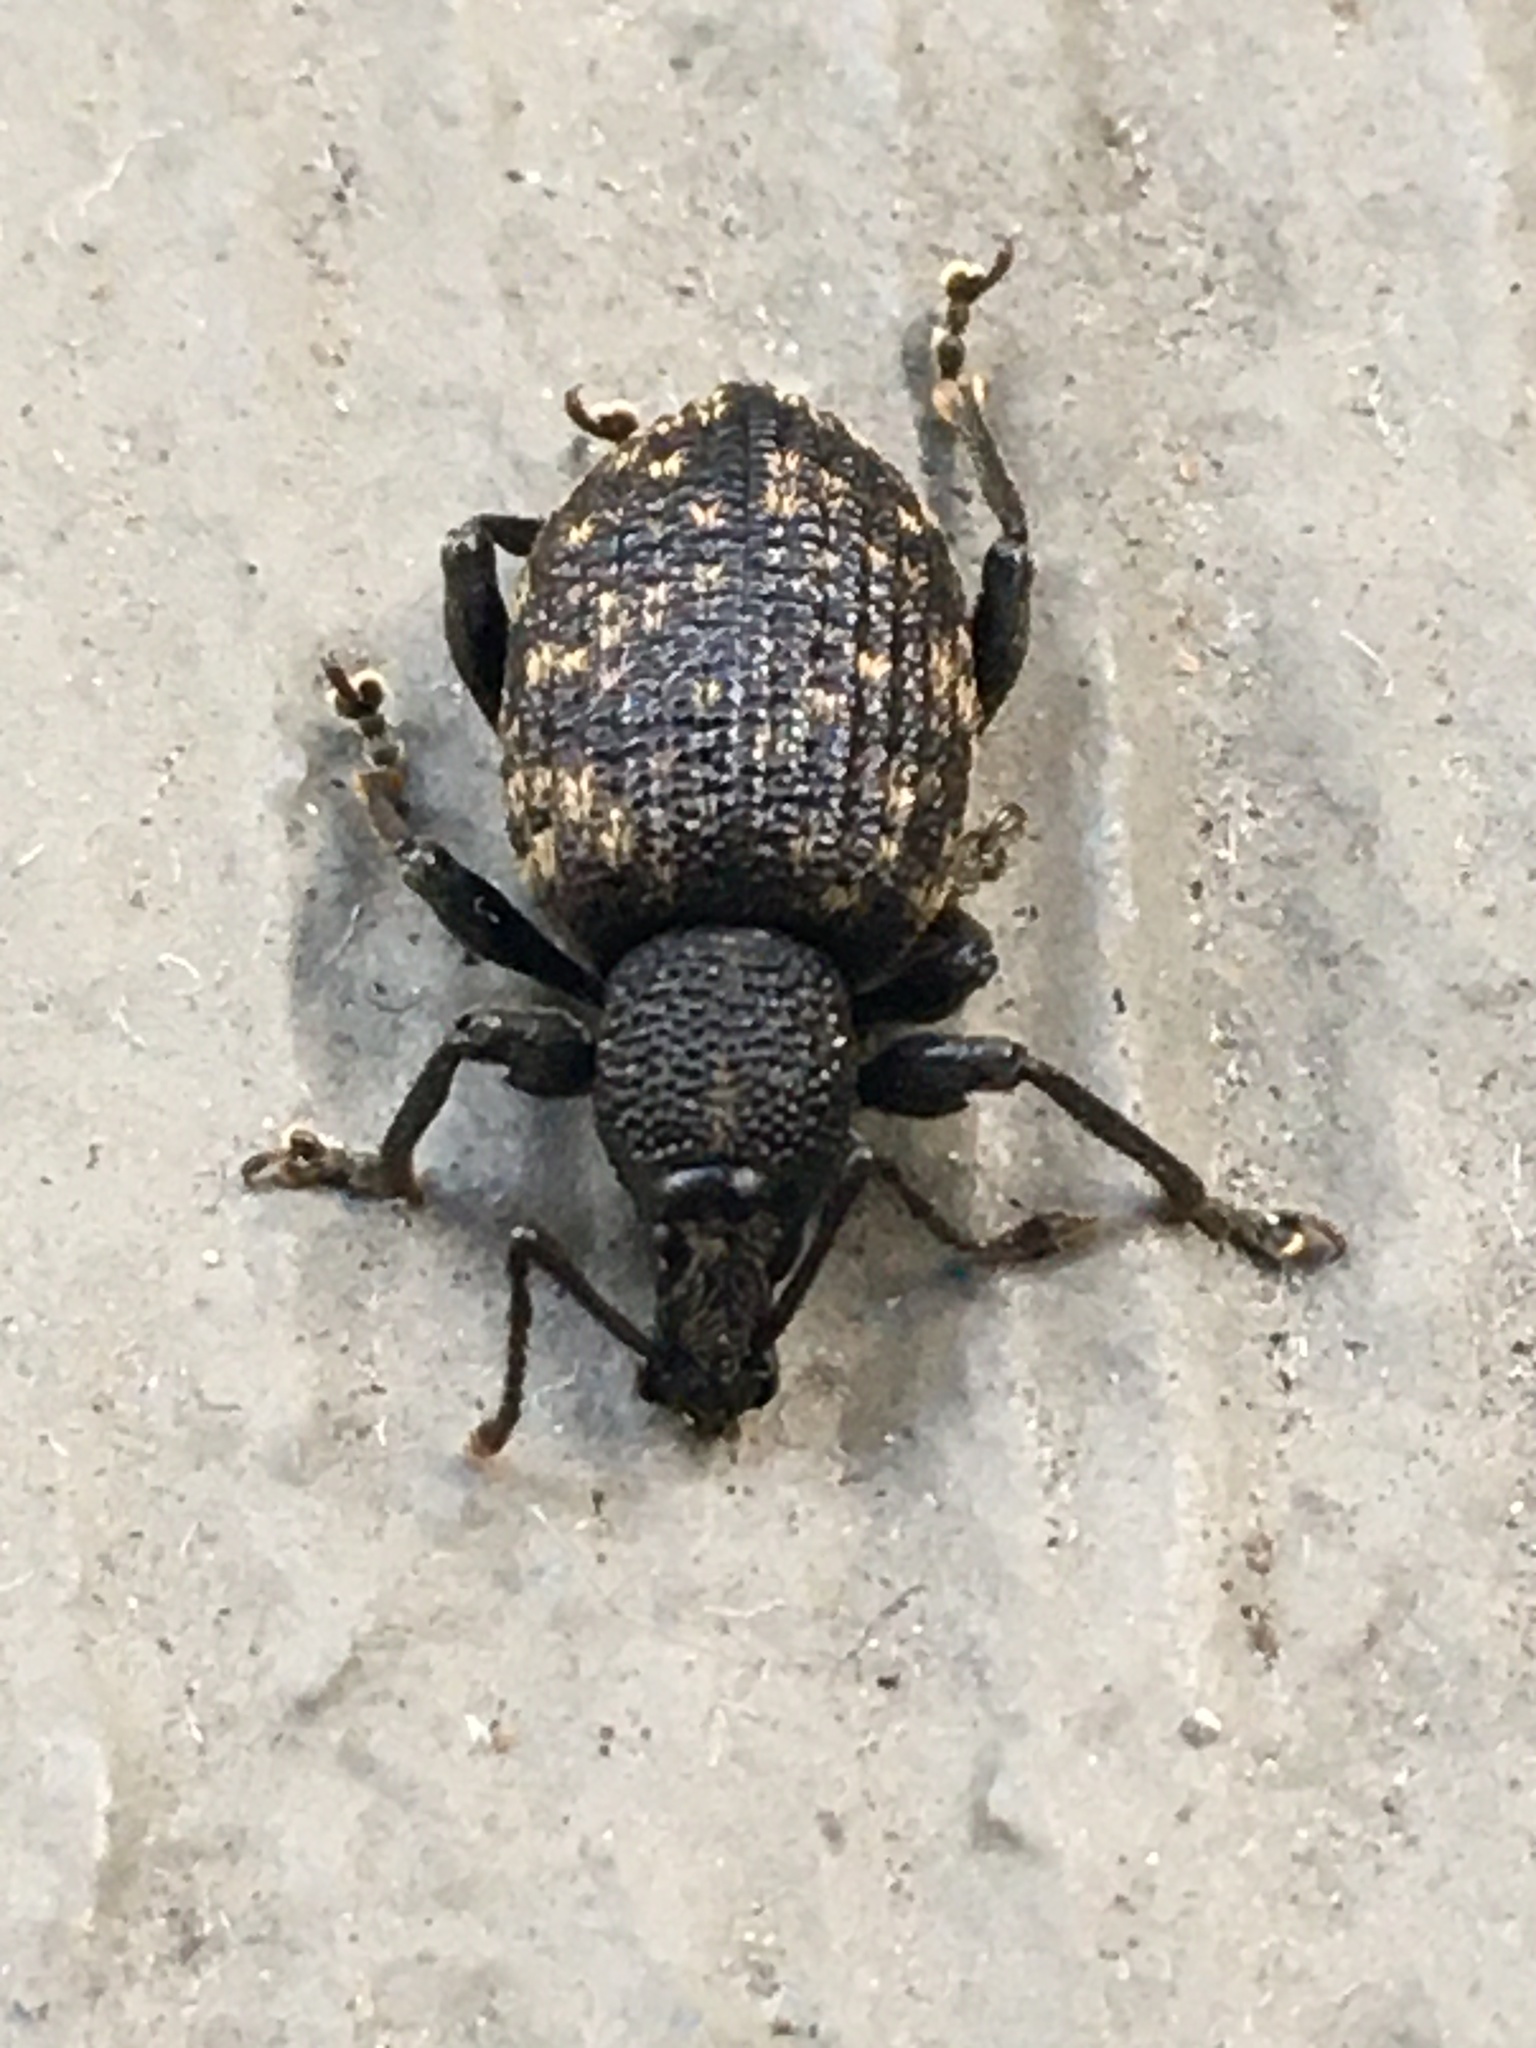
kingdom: Animalia
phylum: Arthropoda
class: Insecta
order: Coleoptera
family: Curculionidae
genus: Otiorhynchus
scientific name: Otiorhynchus sulcatus
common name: Black vine weevil
